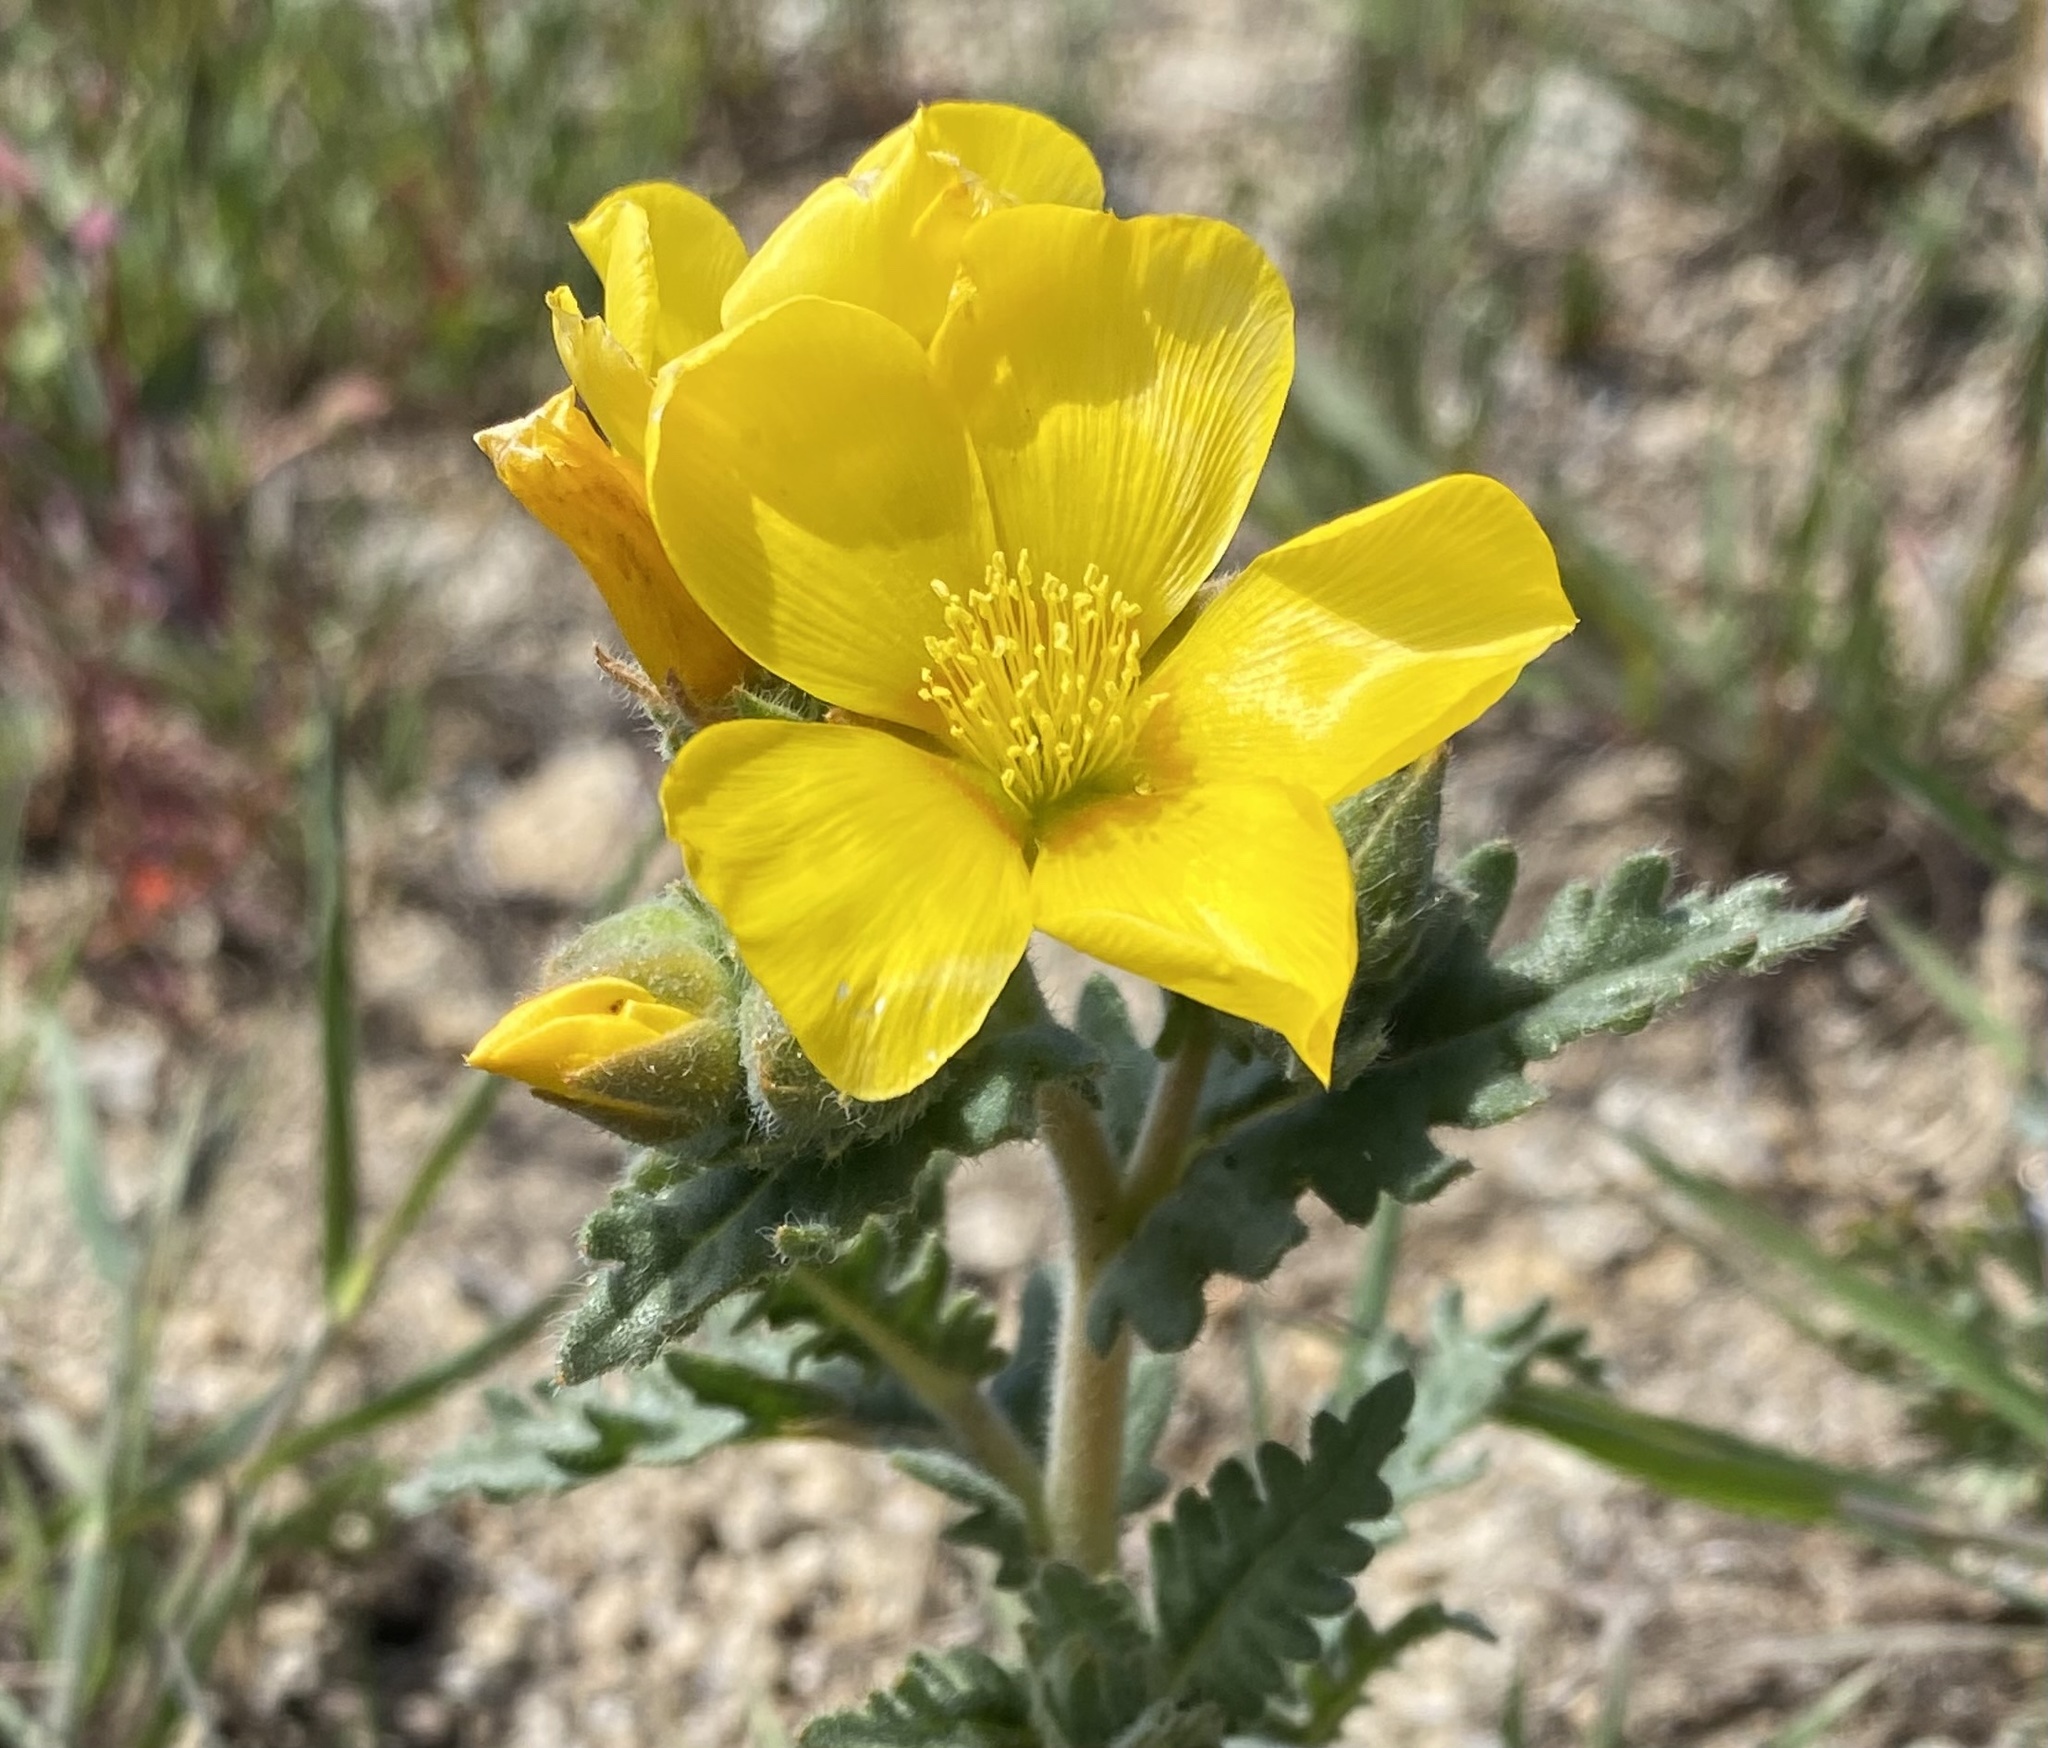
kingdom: Plantae
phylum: Tracheophyta
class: Magnoliopsida
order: Cornales
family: Loasaceae
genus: Mentzelia
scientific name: Mentzelia gracilenta
